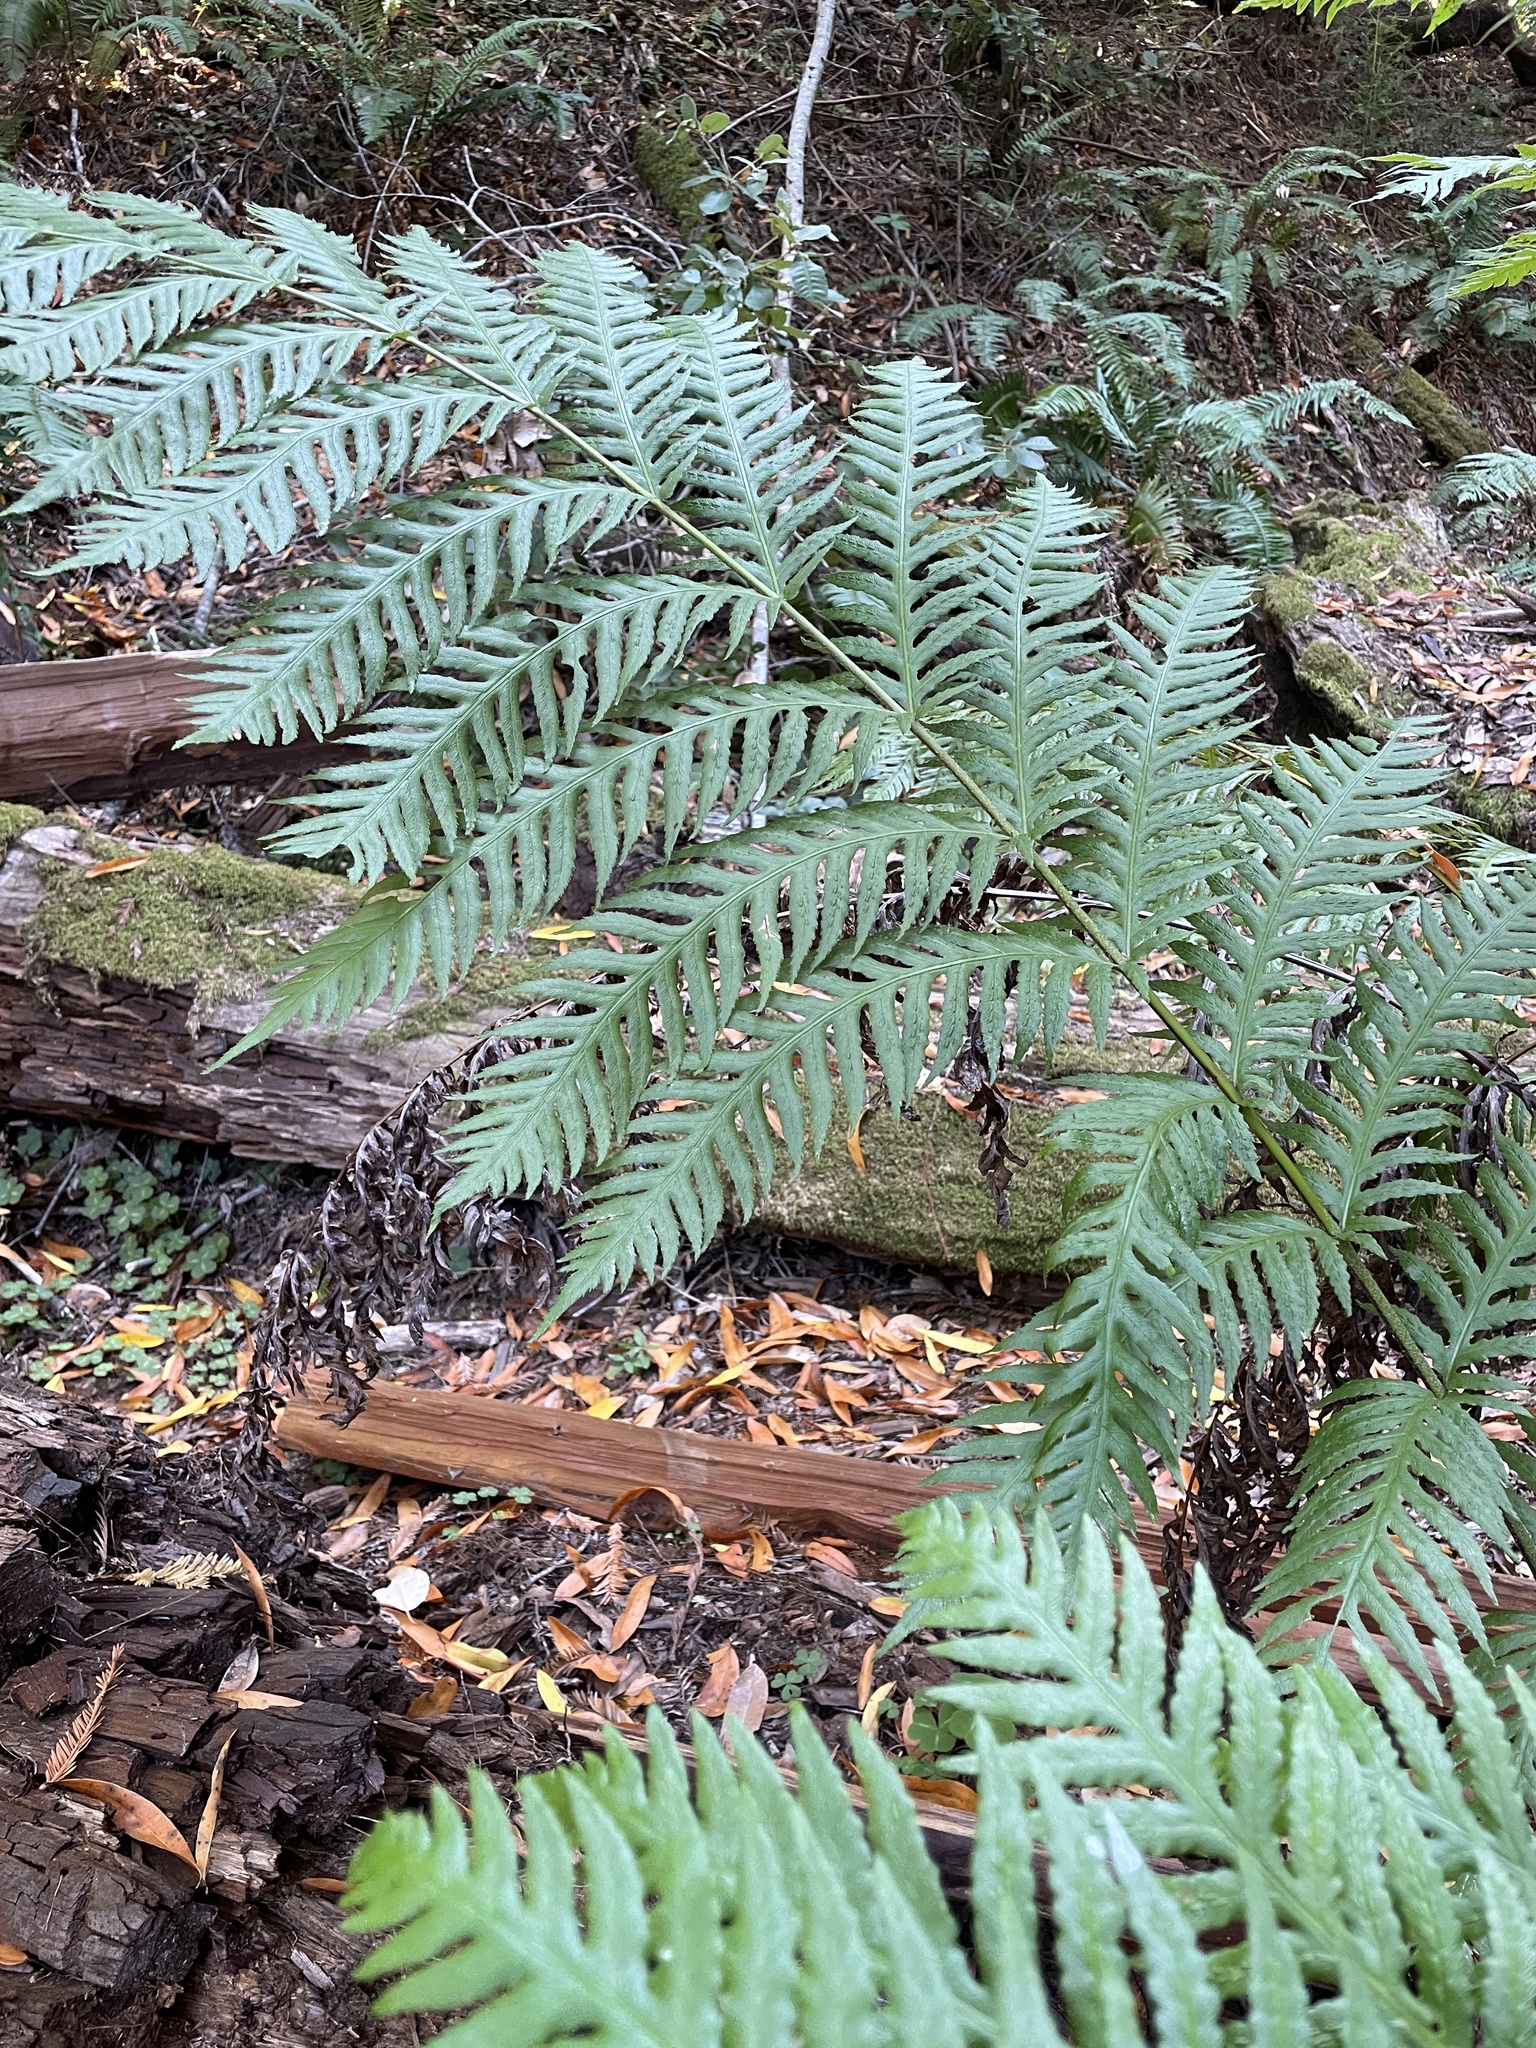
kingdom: Plantae
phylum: Tracheophyta
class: Polypodiopsida
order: Polypodiales
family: Blechnaceae
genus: Woodwardia
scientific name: Woodwardia fimbriata
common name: Giant chain fern
